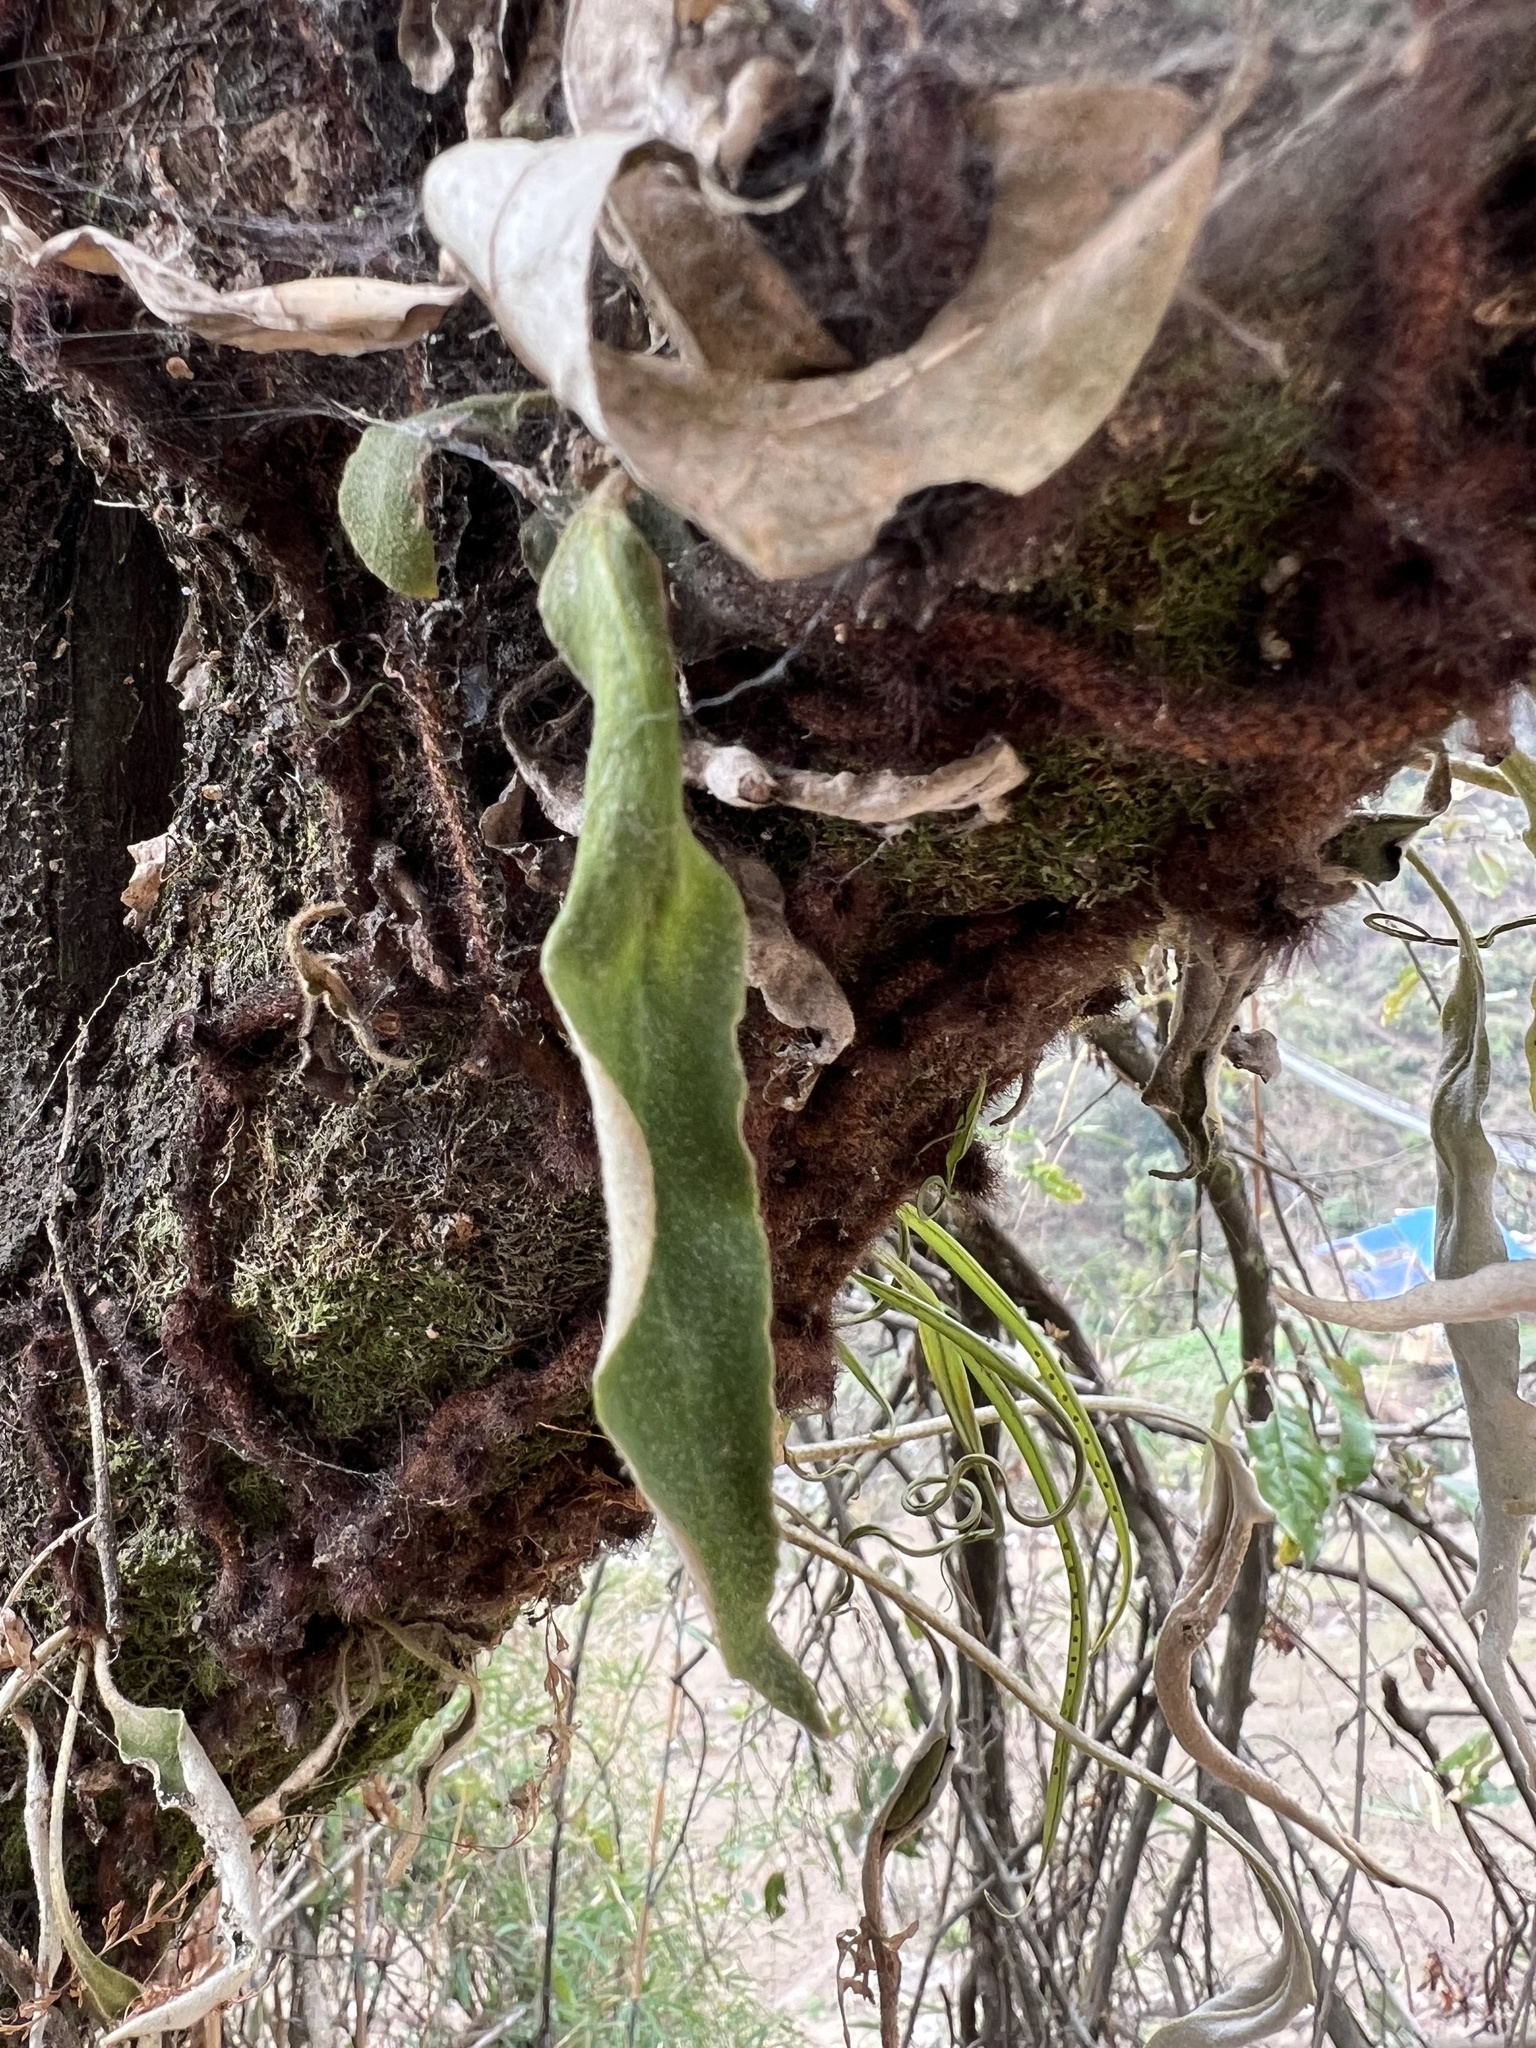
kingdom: Plantae
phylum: Tracheophyta
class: Polypodiopsida
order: Polypodiales
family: Polypodiaceae
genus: Pyrrosia
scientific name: Pyrrosia mannii
